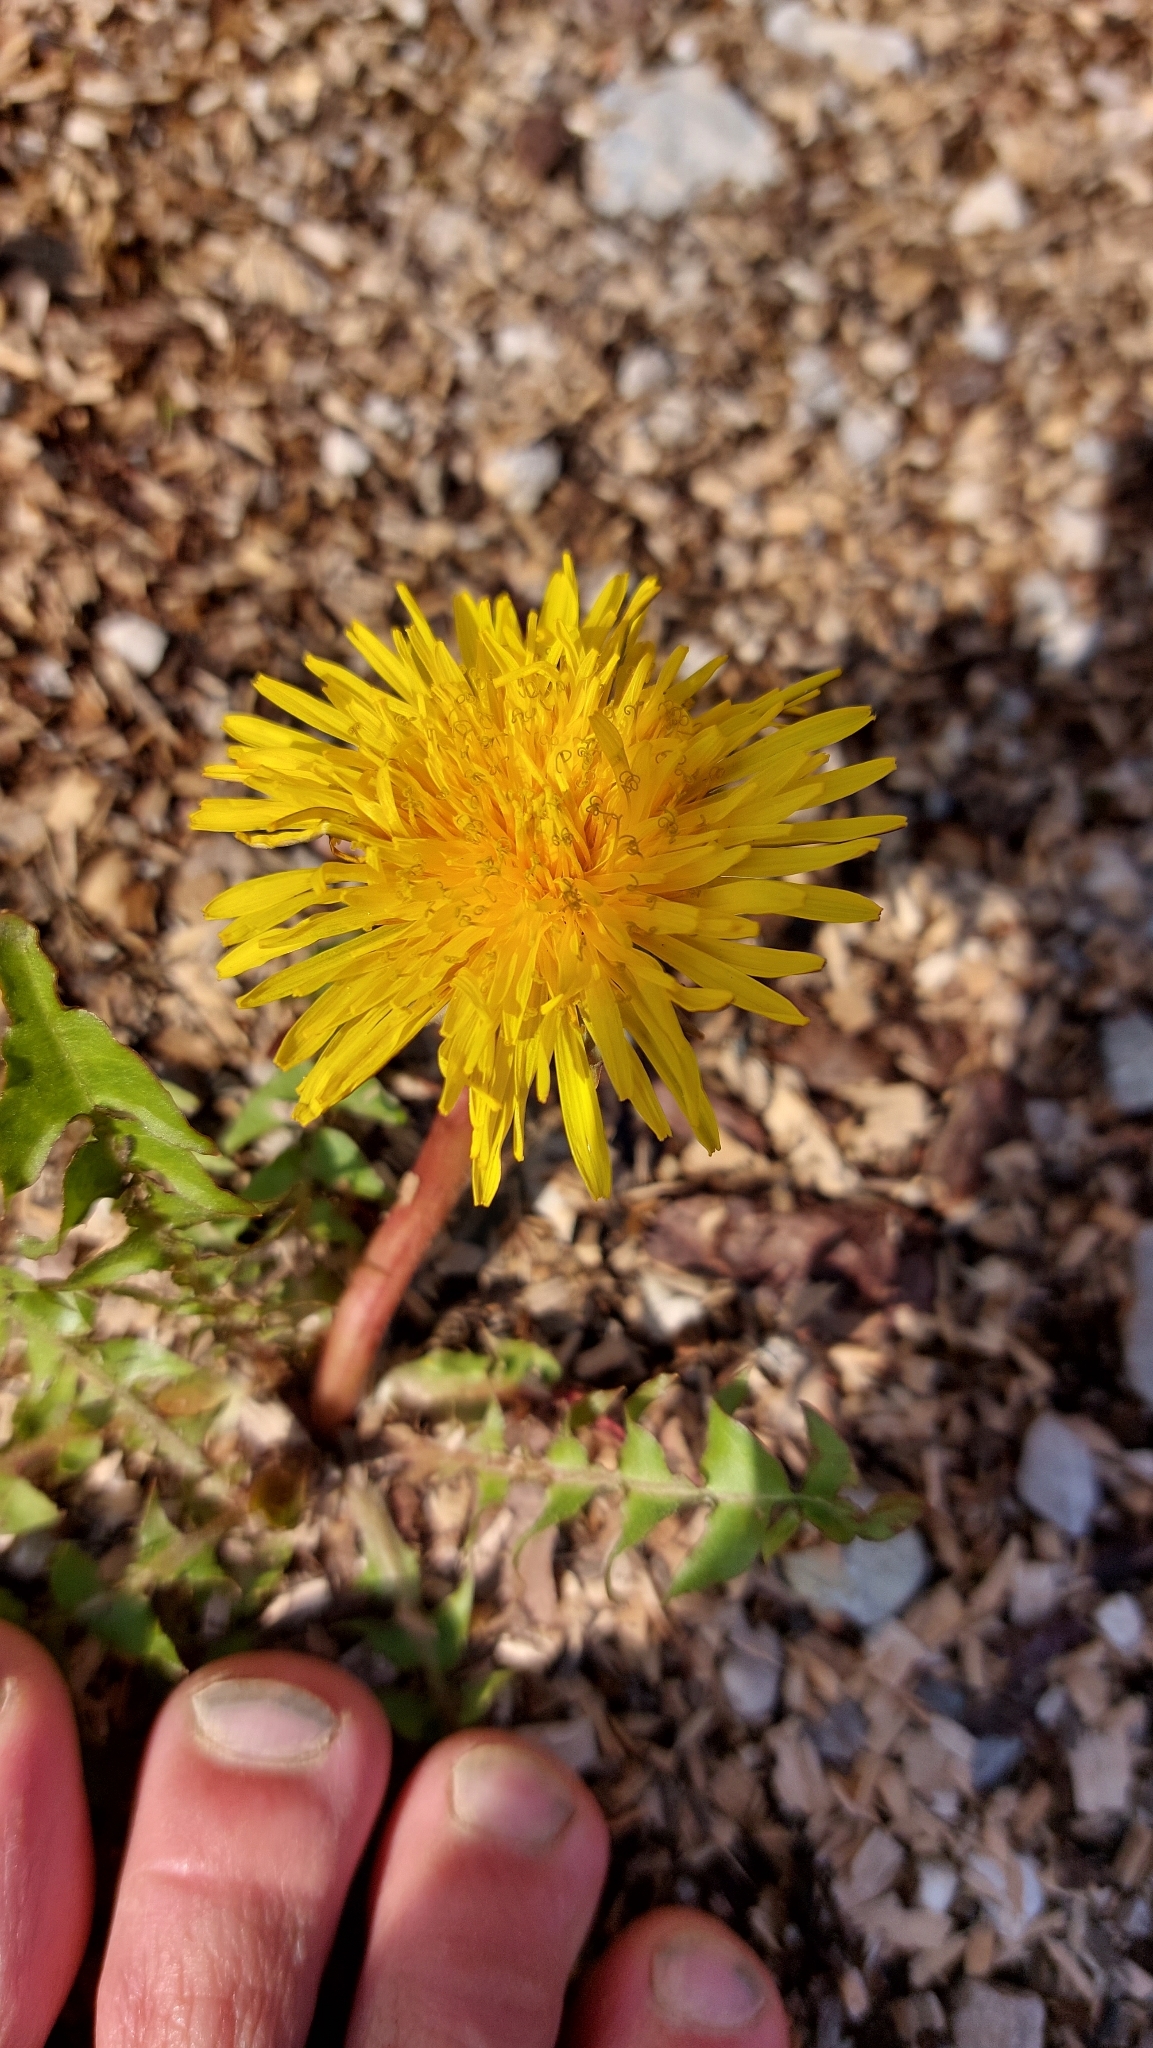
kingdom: Plantae
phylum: Tracheophyta
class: Magnoliopsida
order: Asterales
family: Asteraceae
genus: Taraxacum
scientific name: Taraxacum
